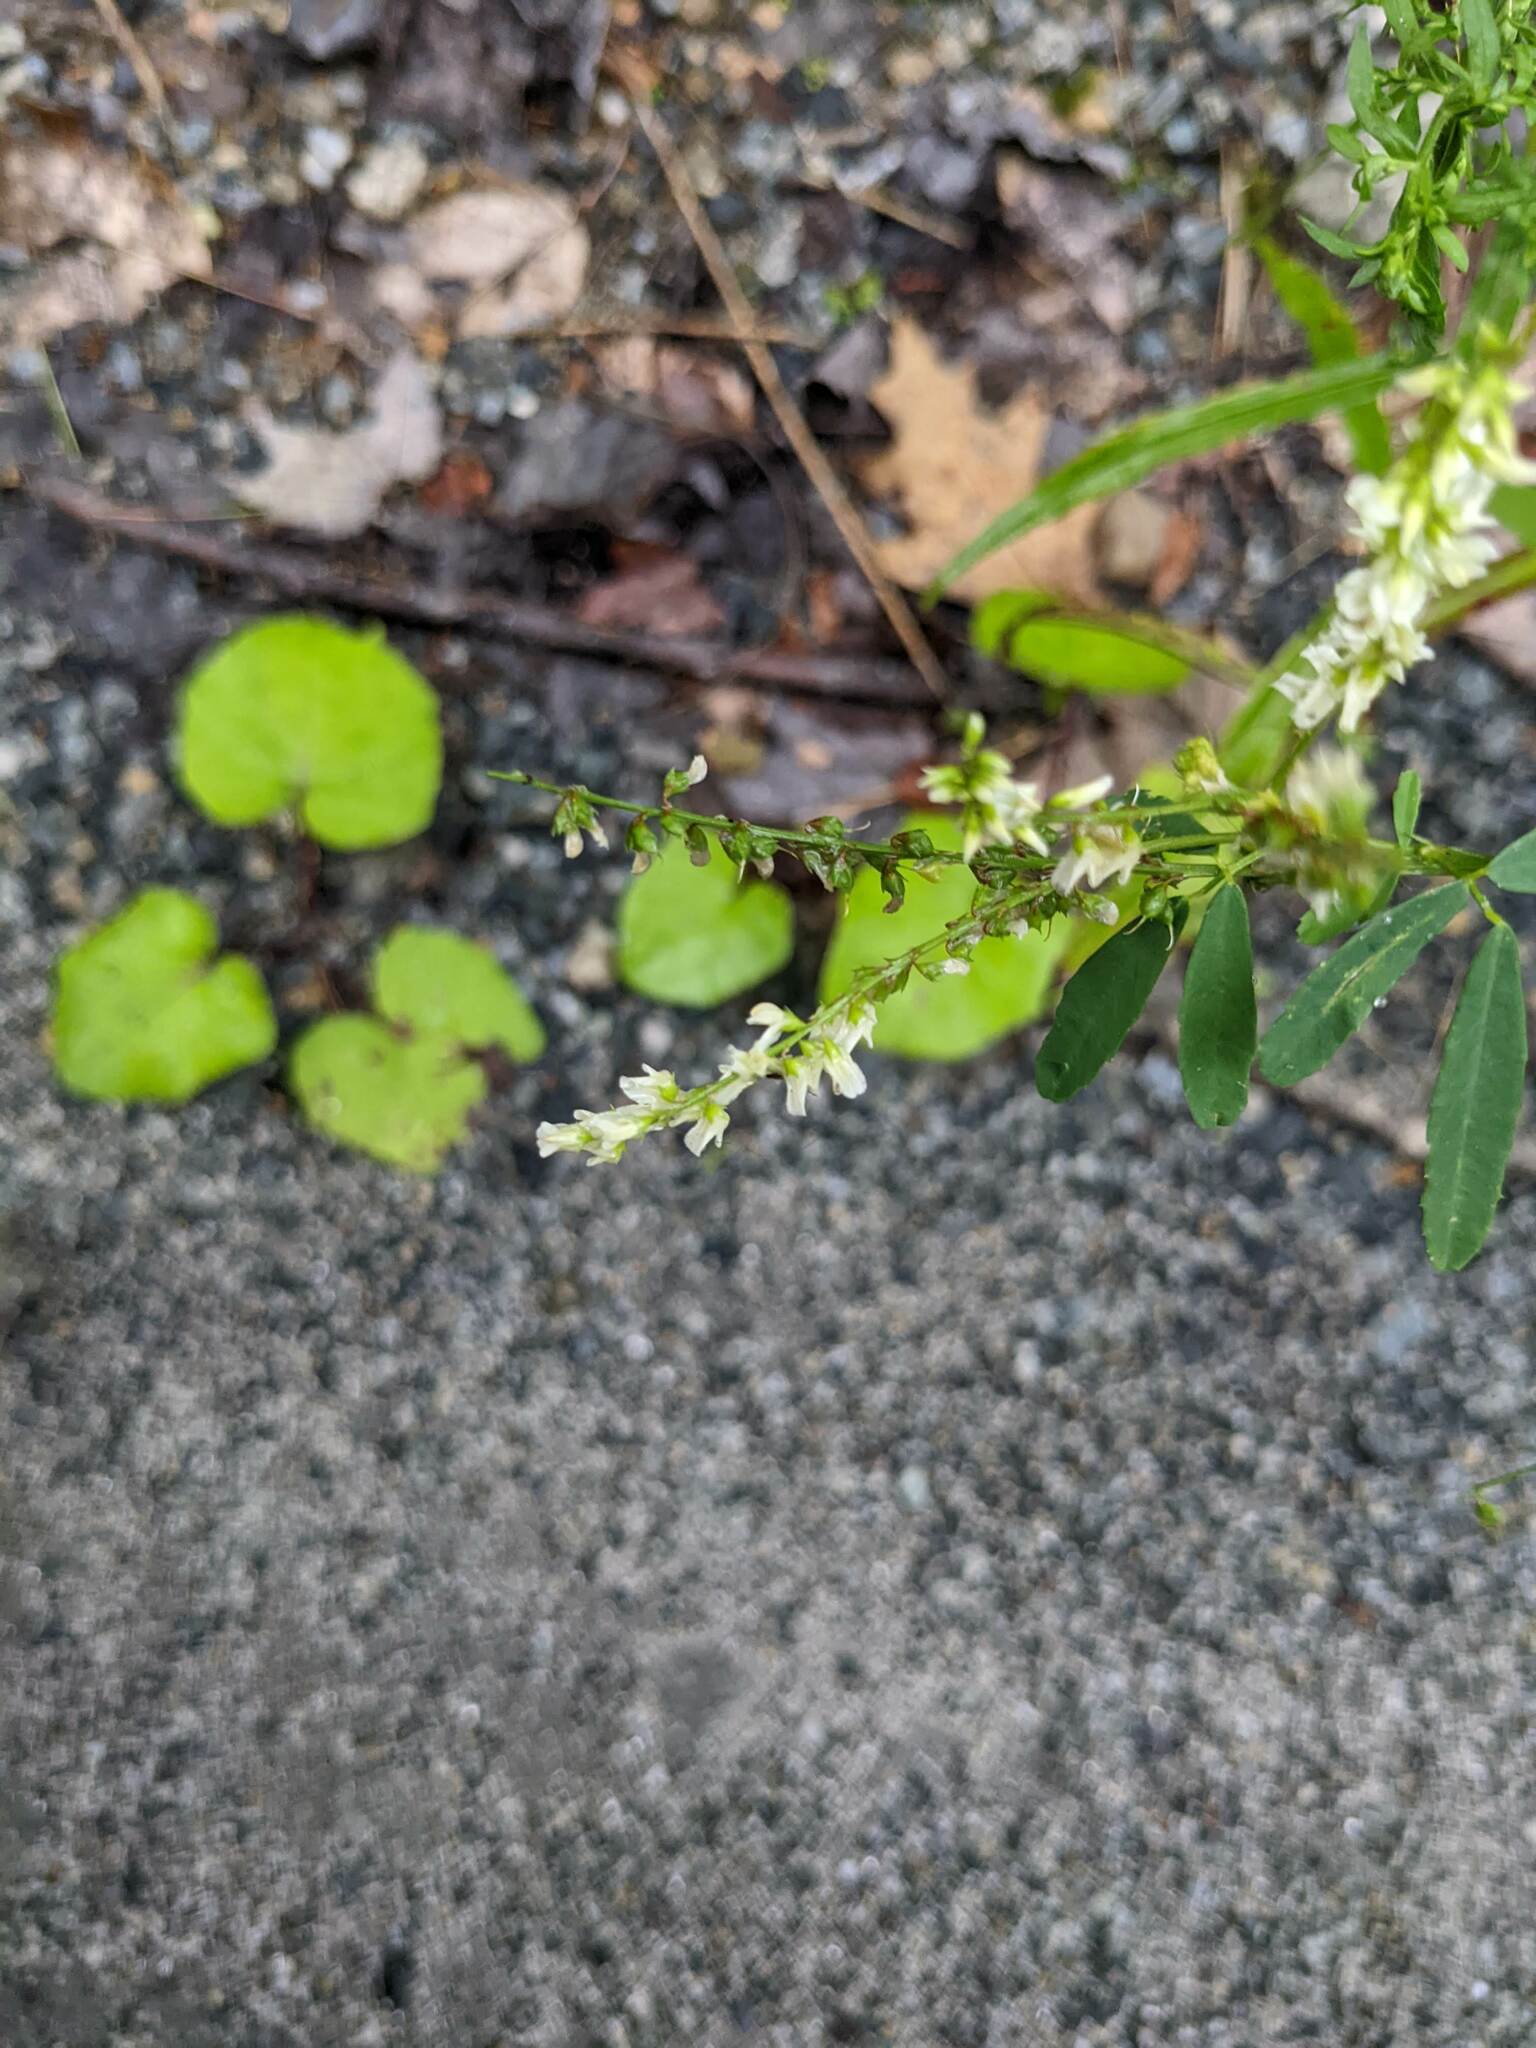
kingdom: Plantae
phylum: Tracheophyta
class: Magnoliopsida
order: Fabales
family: Fabaceae
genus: Melilotus
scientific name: Melilotus albus
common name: White melilot
